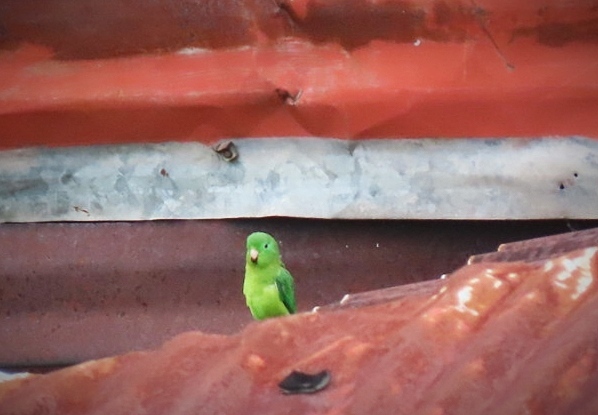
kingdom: Animalia
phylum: Chordata
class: Aves
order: Psittaciformes
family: Psittacidae
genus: Forpus
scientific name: Forpus conspicillatus
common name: Spectacled parrotlet
